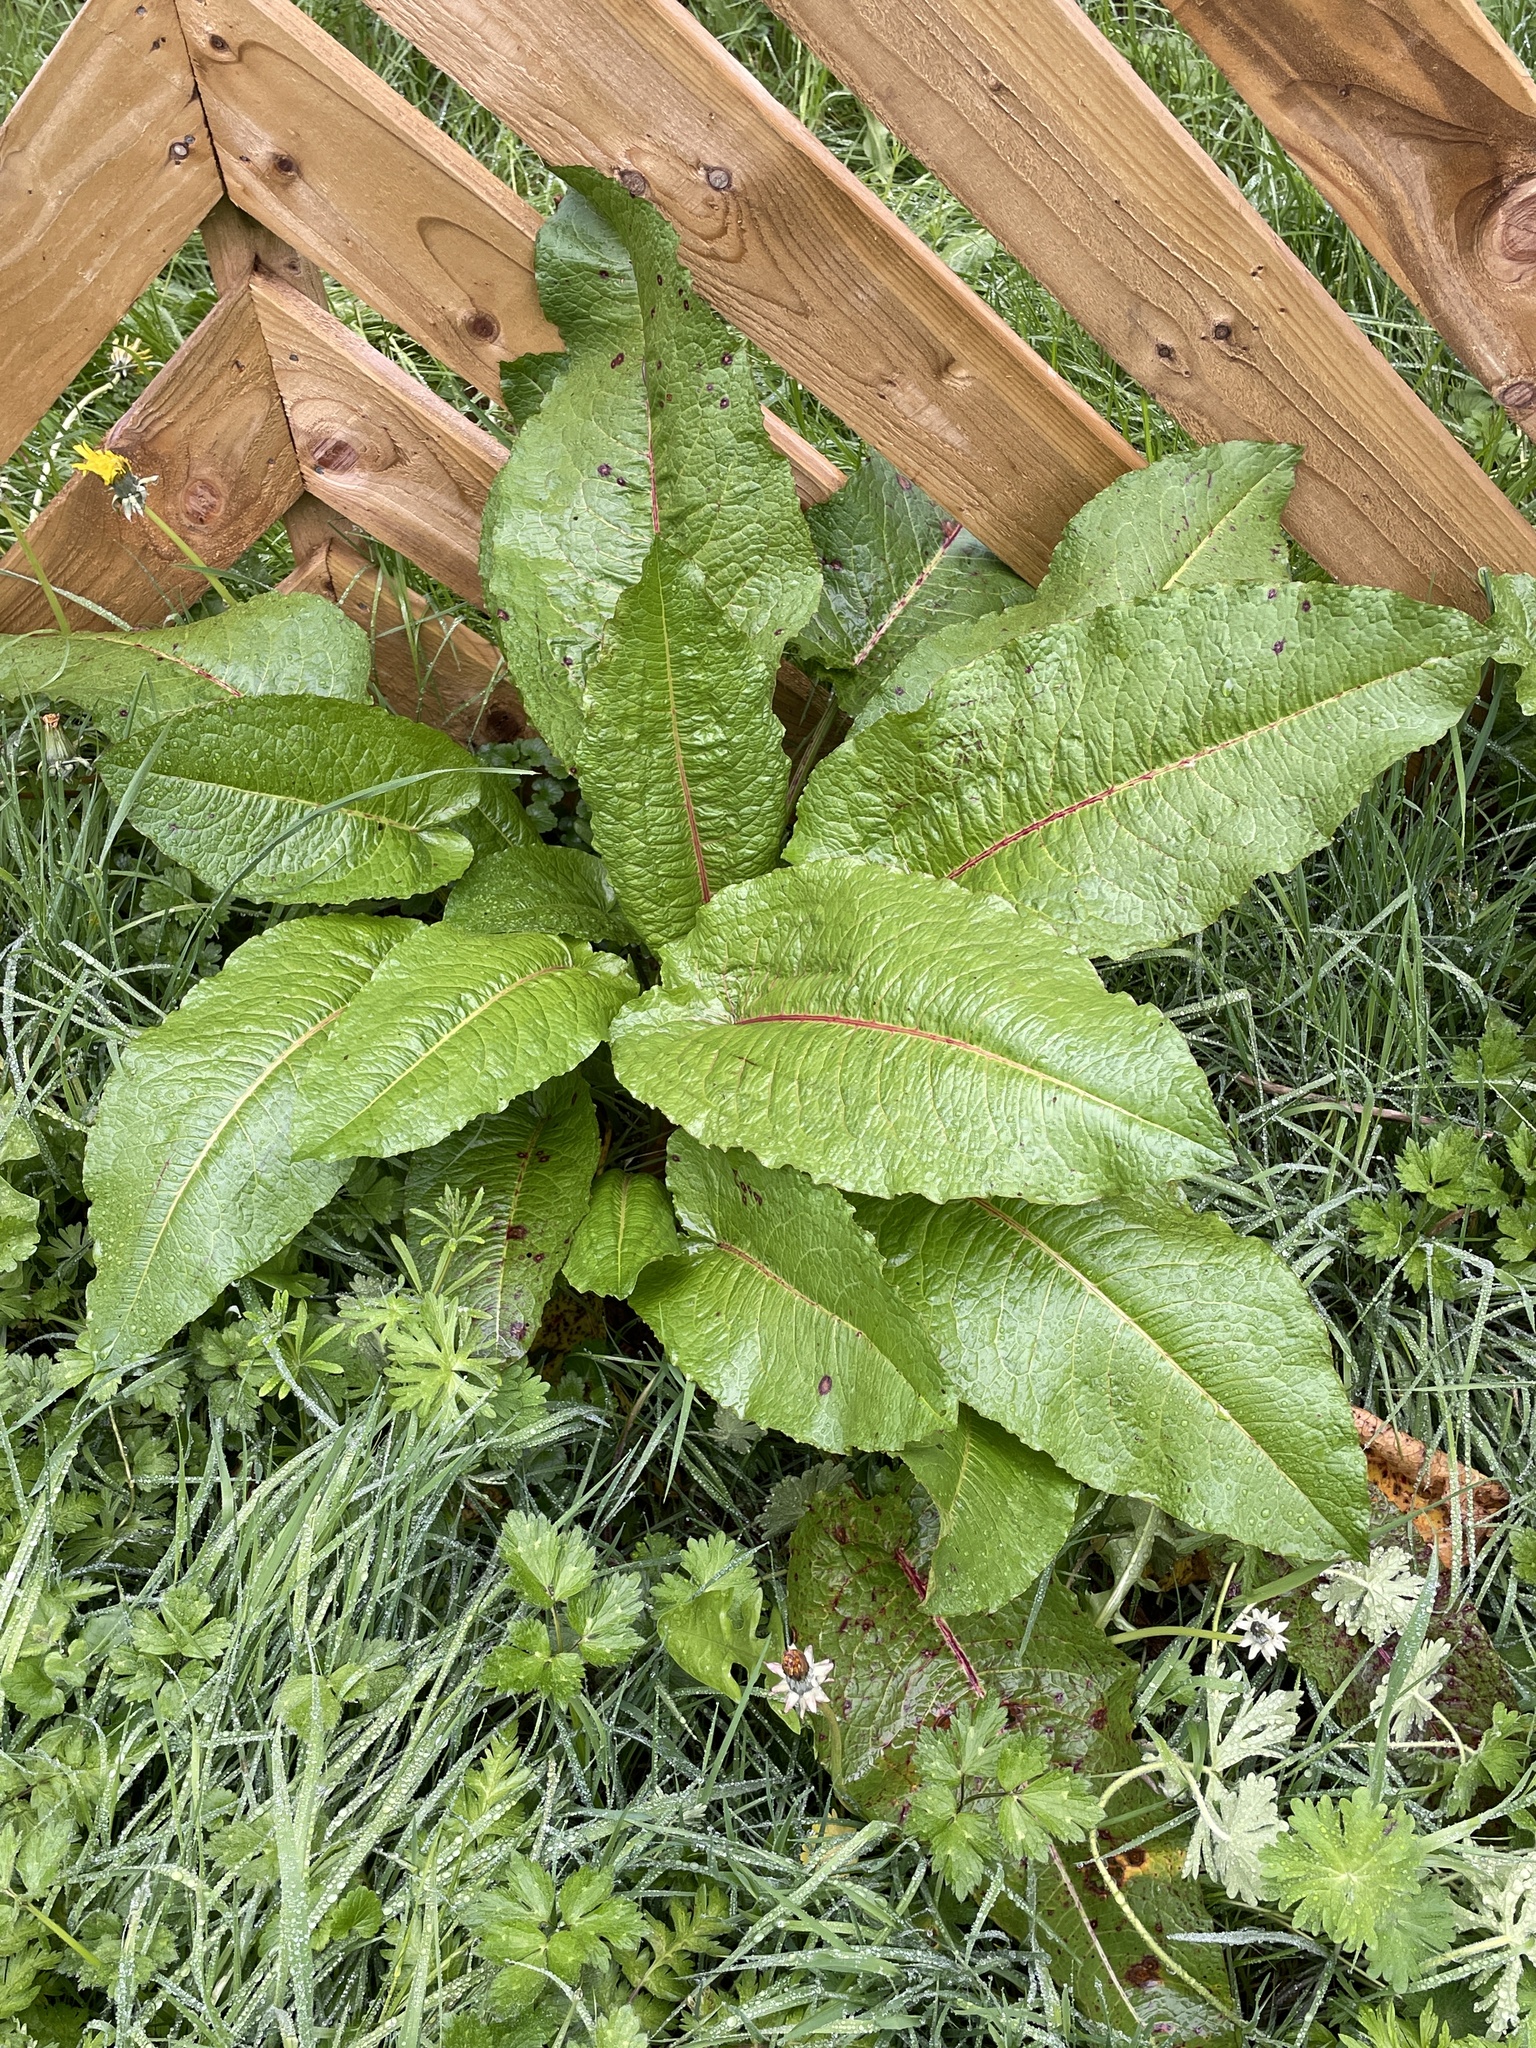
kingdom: Plantae
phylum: Tracheophyta
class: Magnoliopsida
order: Caryophyllales
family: Polygonaceae
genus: Rumex
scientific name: Rumex obtusifolius
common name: Bitter dock
